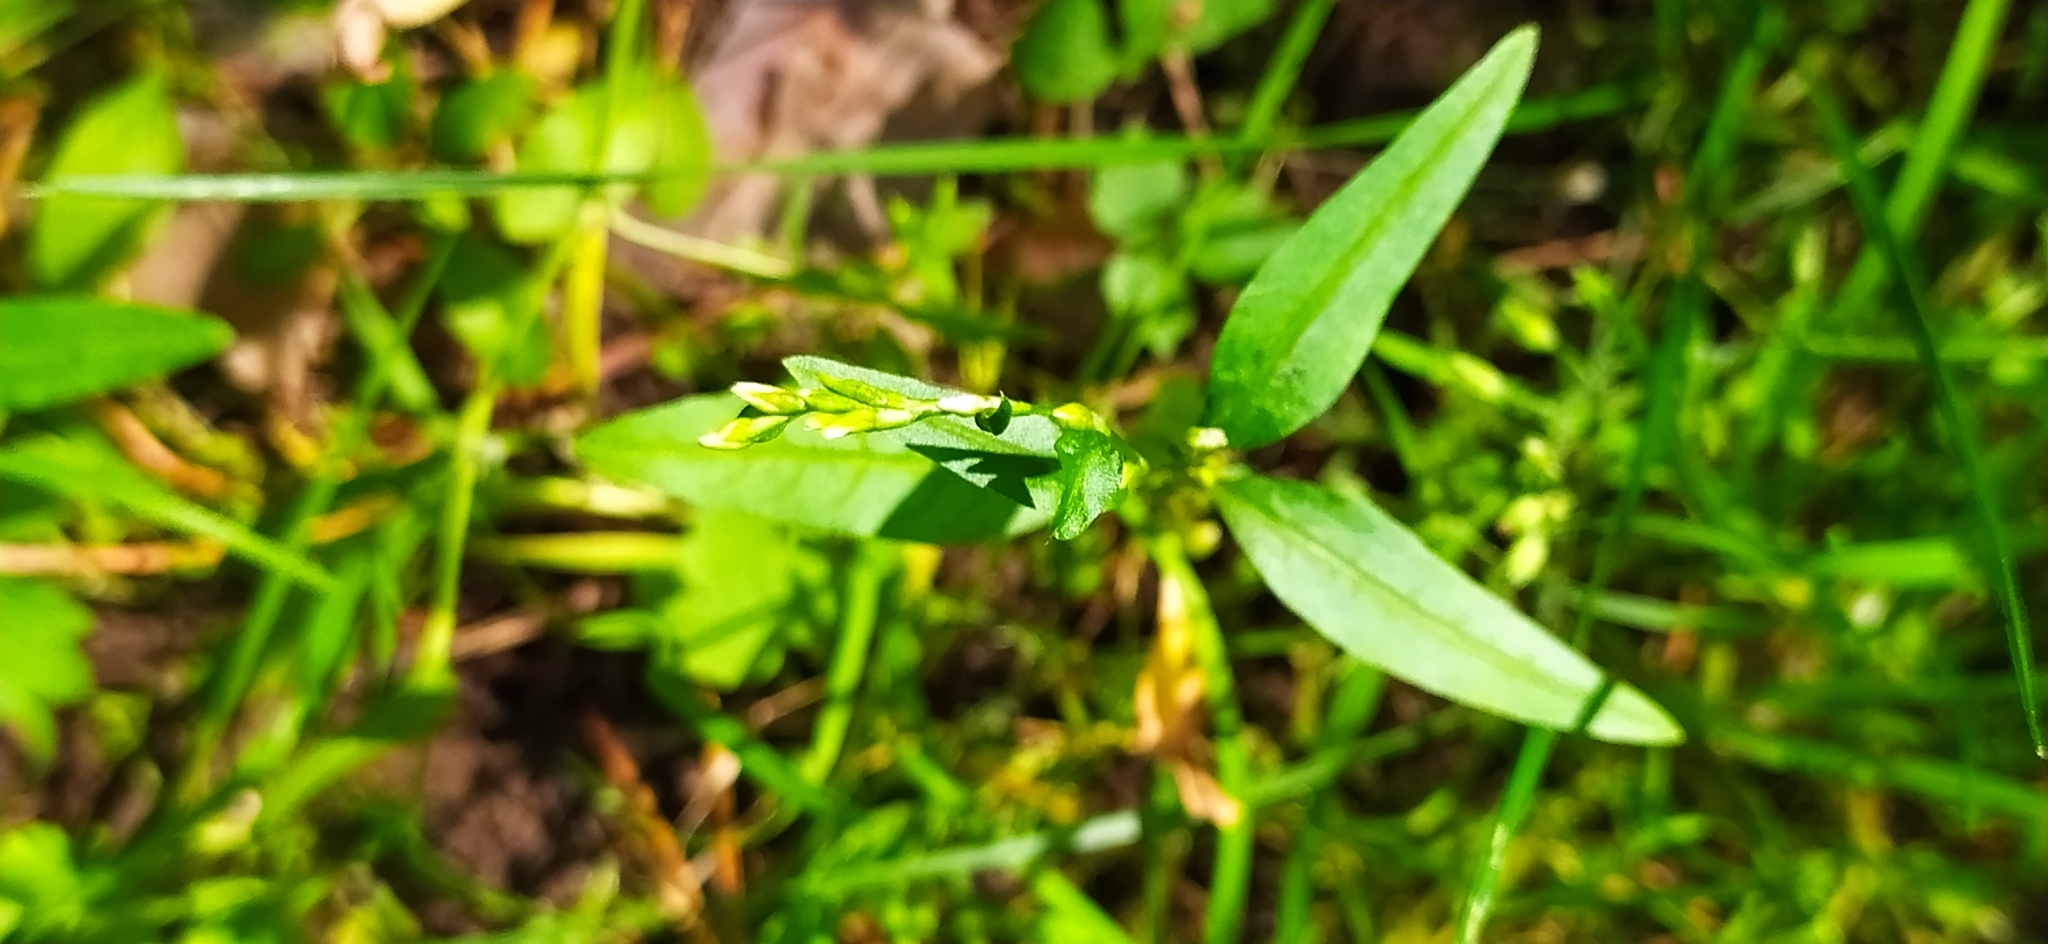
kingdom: Plantae
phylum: Tracheophyta
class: Magnoliopsida
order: Caryophyllales
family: Polygonaceae
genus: Persicaria
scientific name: Persicaria hydropiper
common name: Water-pepper
